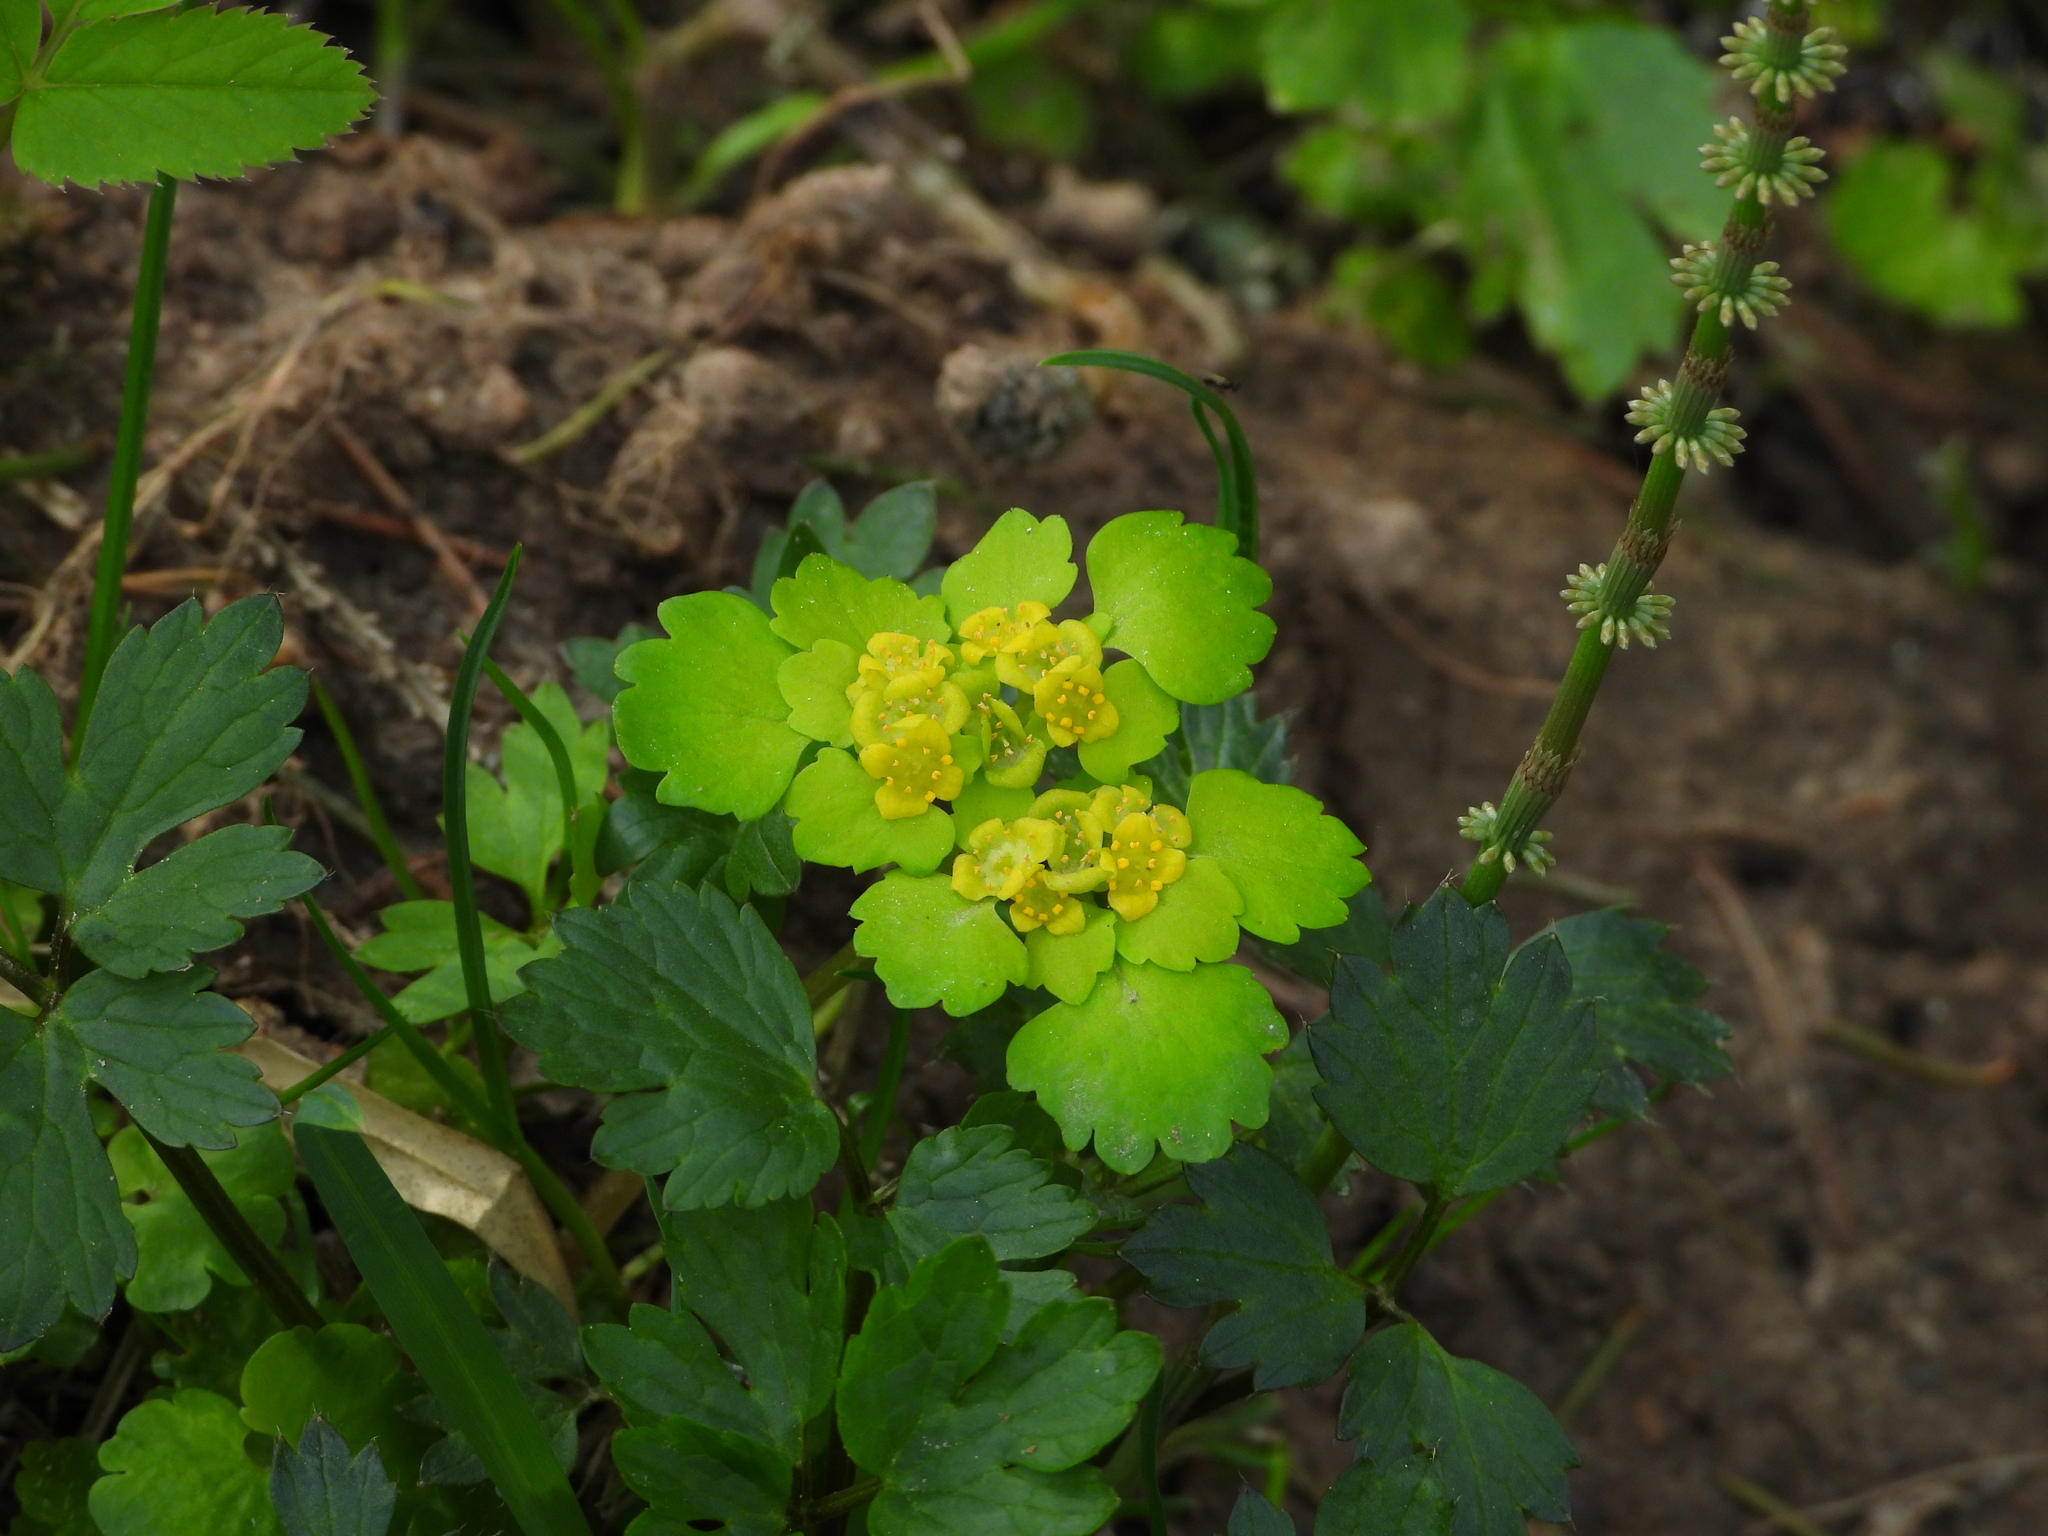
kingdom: Plantae
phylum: Tracheophyta
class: Magnoliopsida
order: Saxifragales
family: Saxifragaceae
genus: Chrysosplenium
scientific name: Chrysosplenium alternifolium
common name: Alternate-leaved golden-saxifrage
